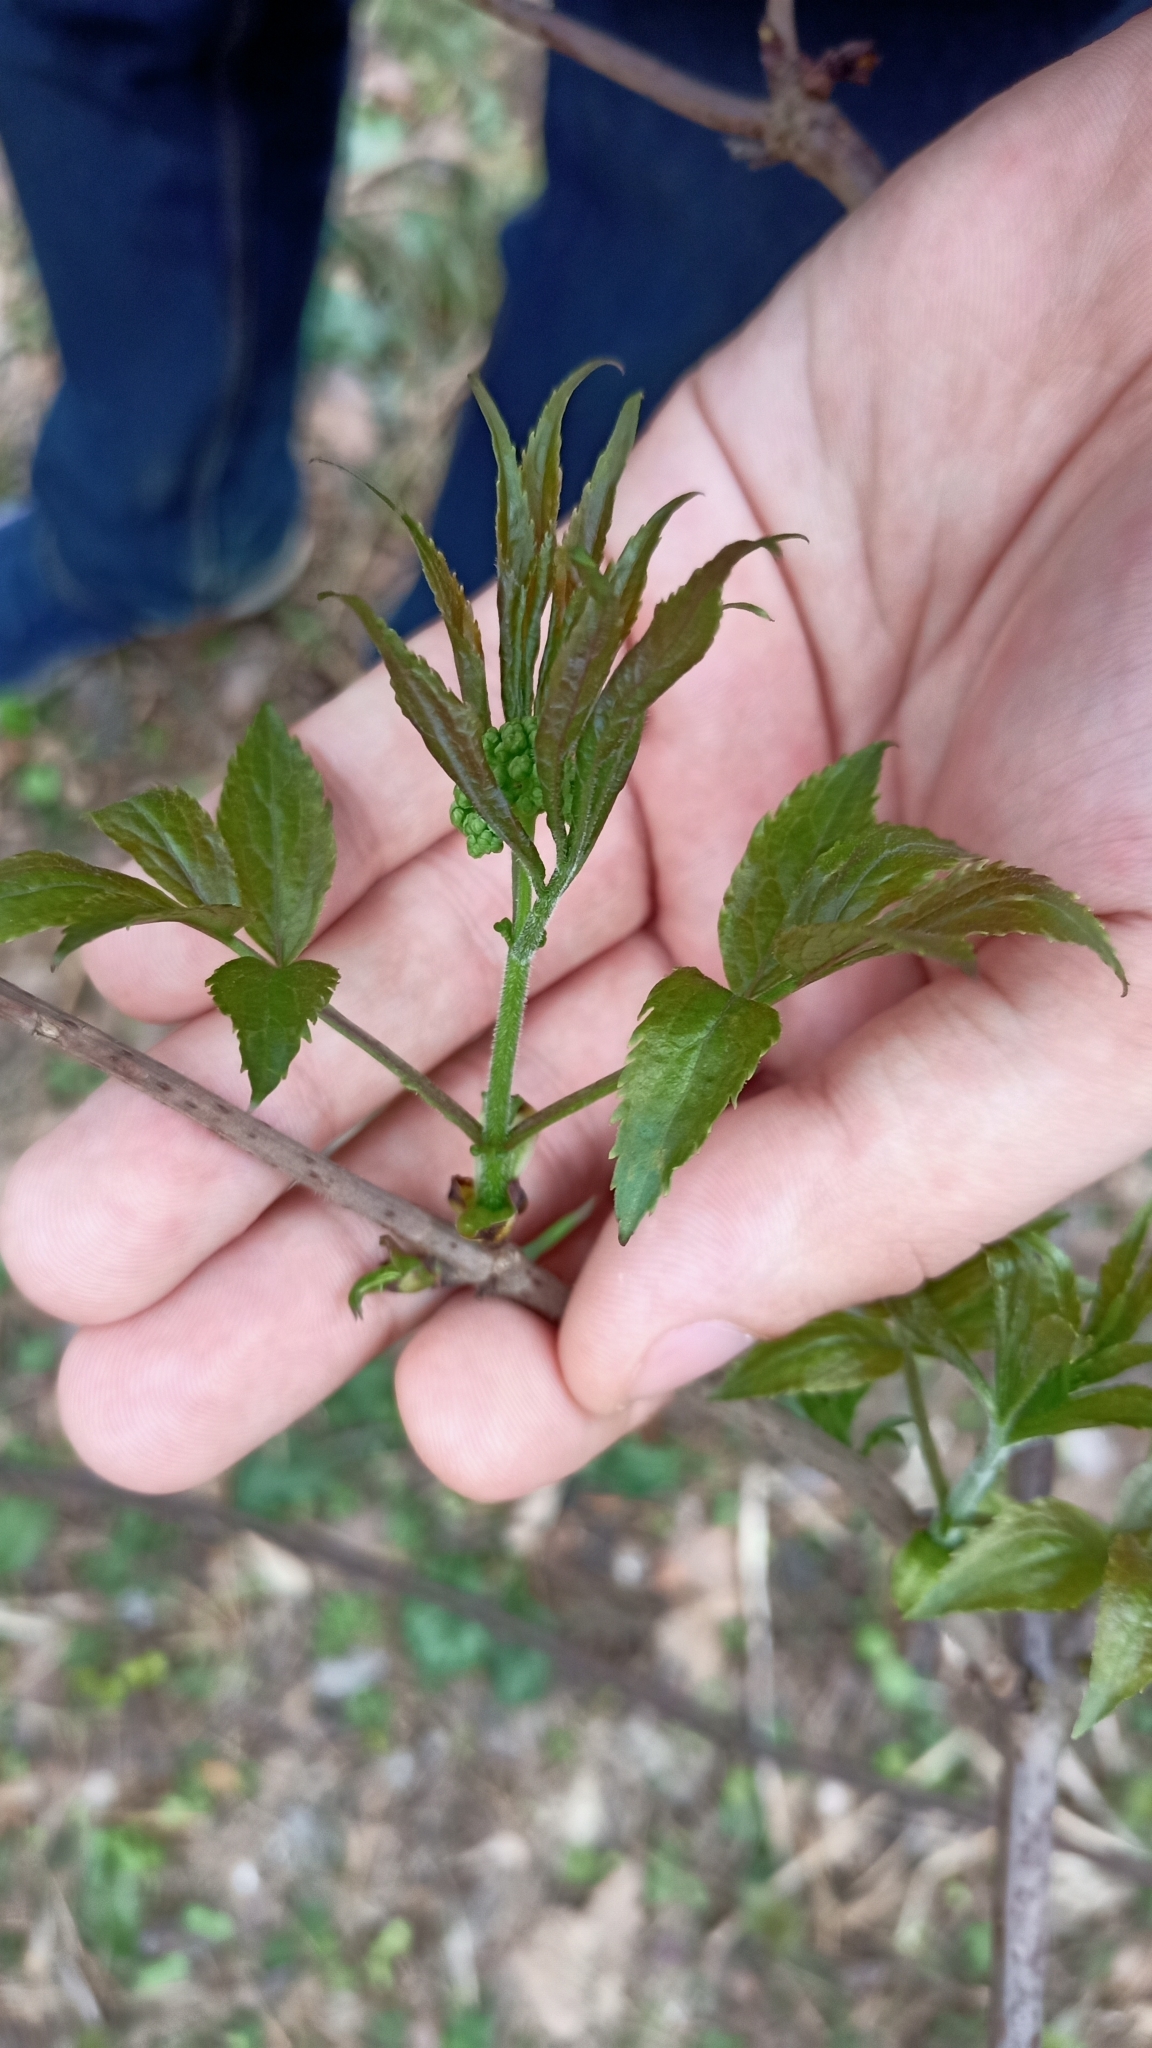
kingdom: Plantae
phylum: Tracheophyta
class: Magnoliopsida
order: Dipsacales
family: Viburnaceae
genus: Sambucus
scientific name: Sambucus racemosa
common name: Red-berried elder
